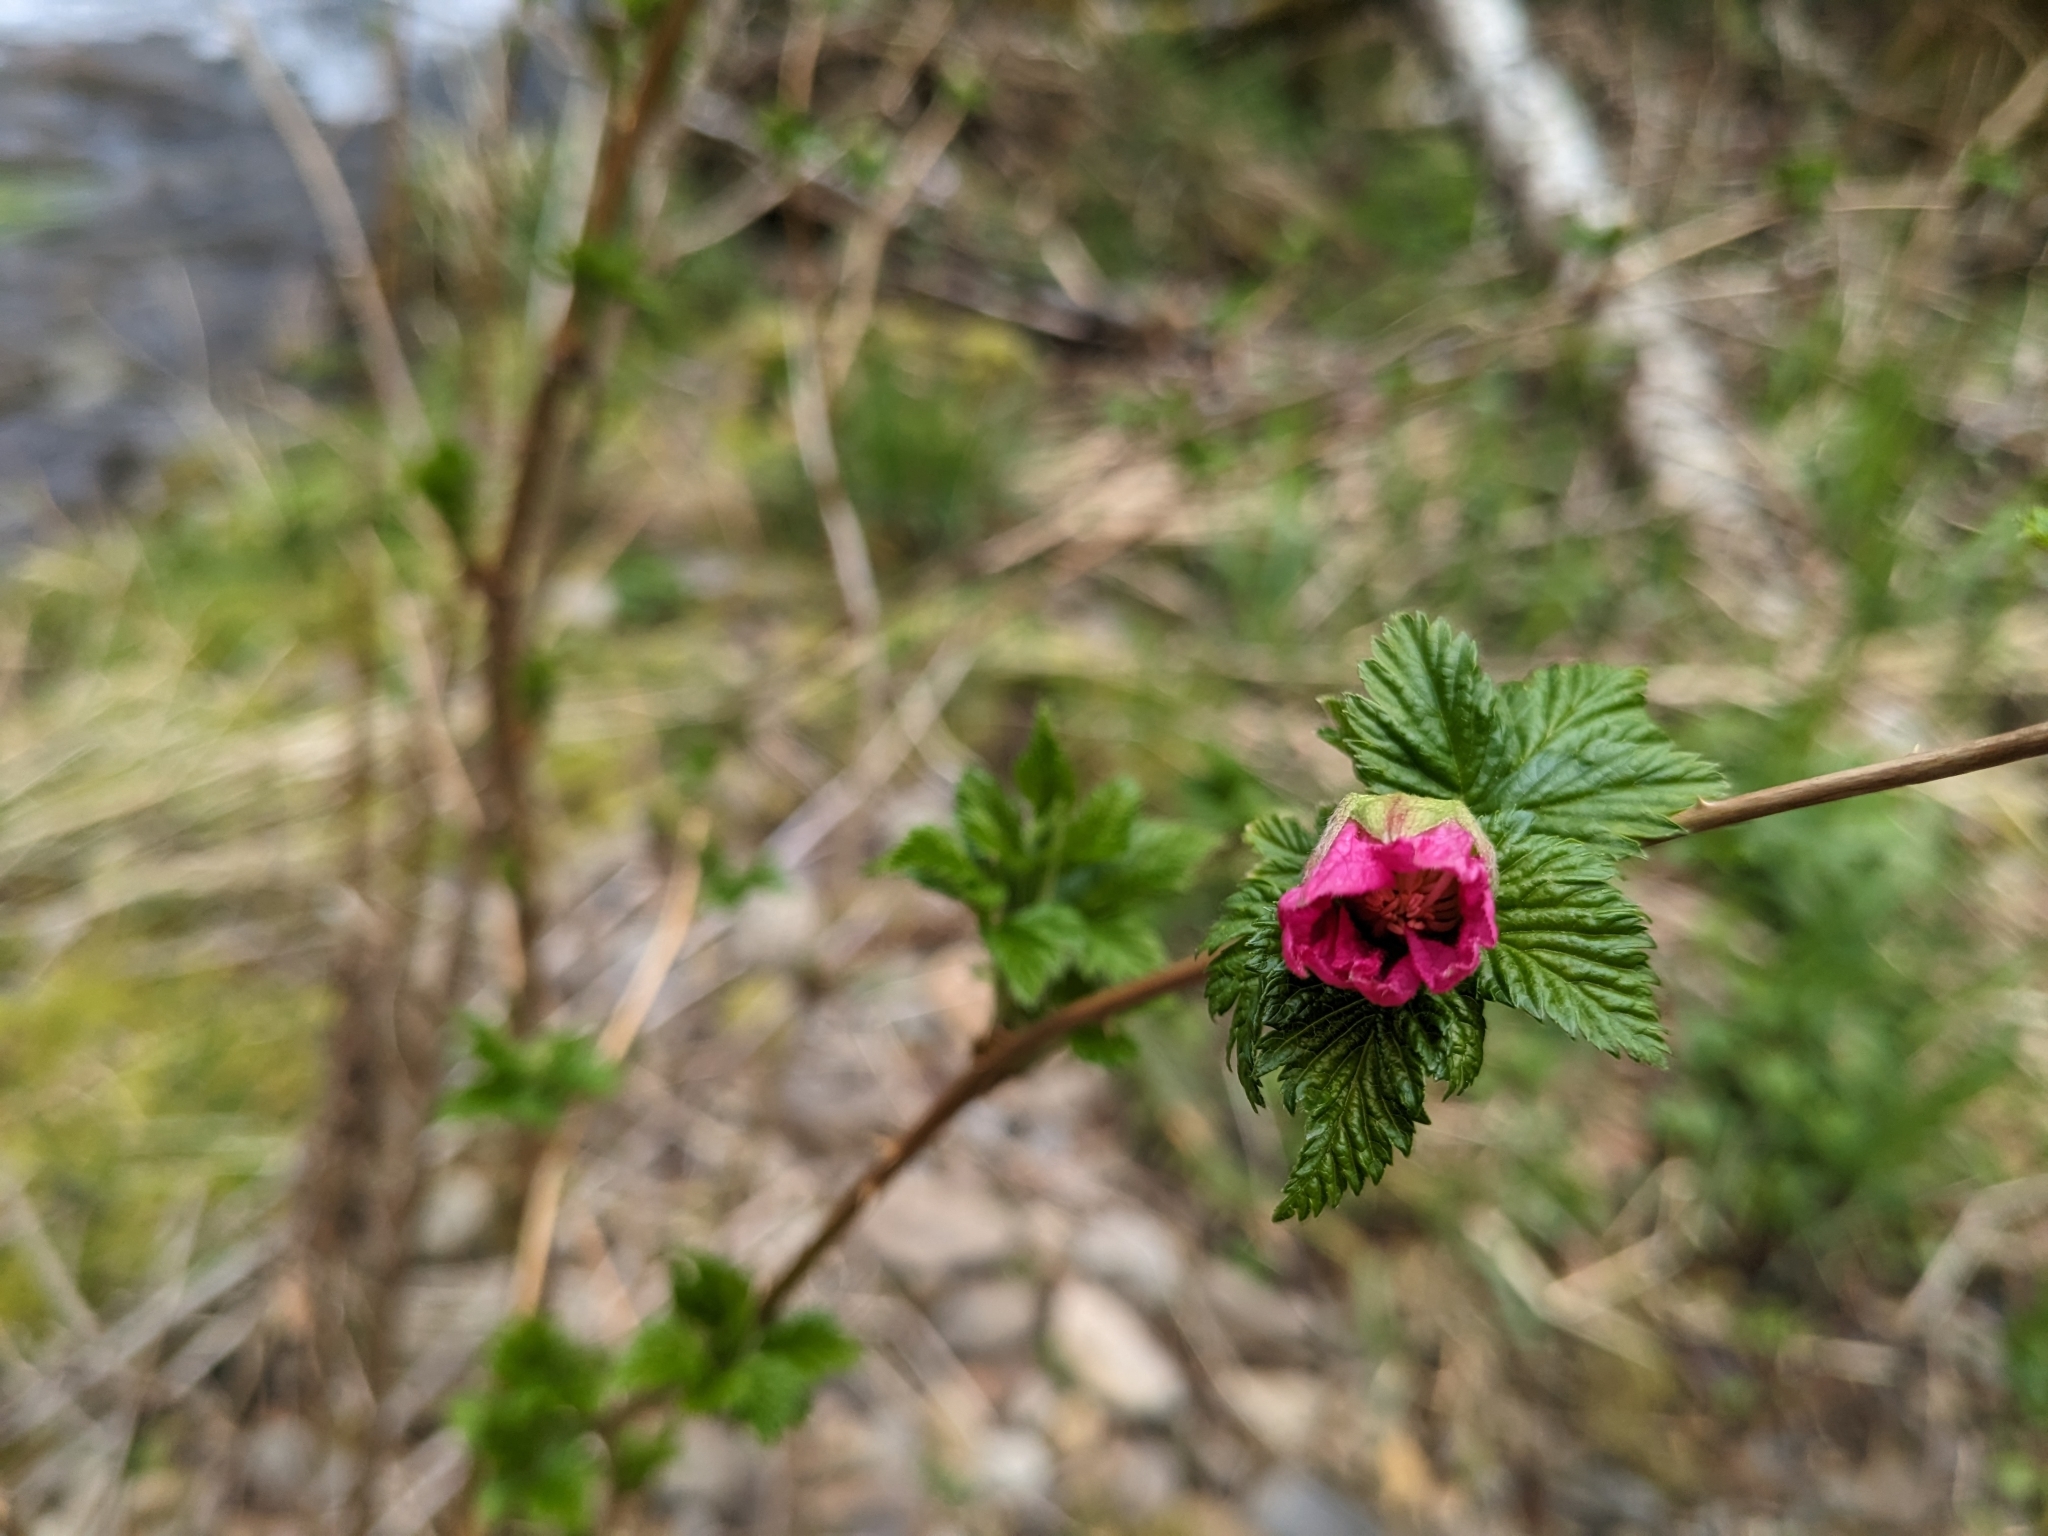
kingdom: Plantae
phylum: Tracheophyta
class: Magnoliopsida
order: Rosales
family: Rosaceae
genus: Rubus
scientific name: Rubus spectabilis
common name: Salmonberry
